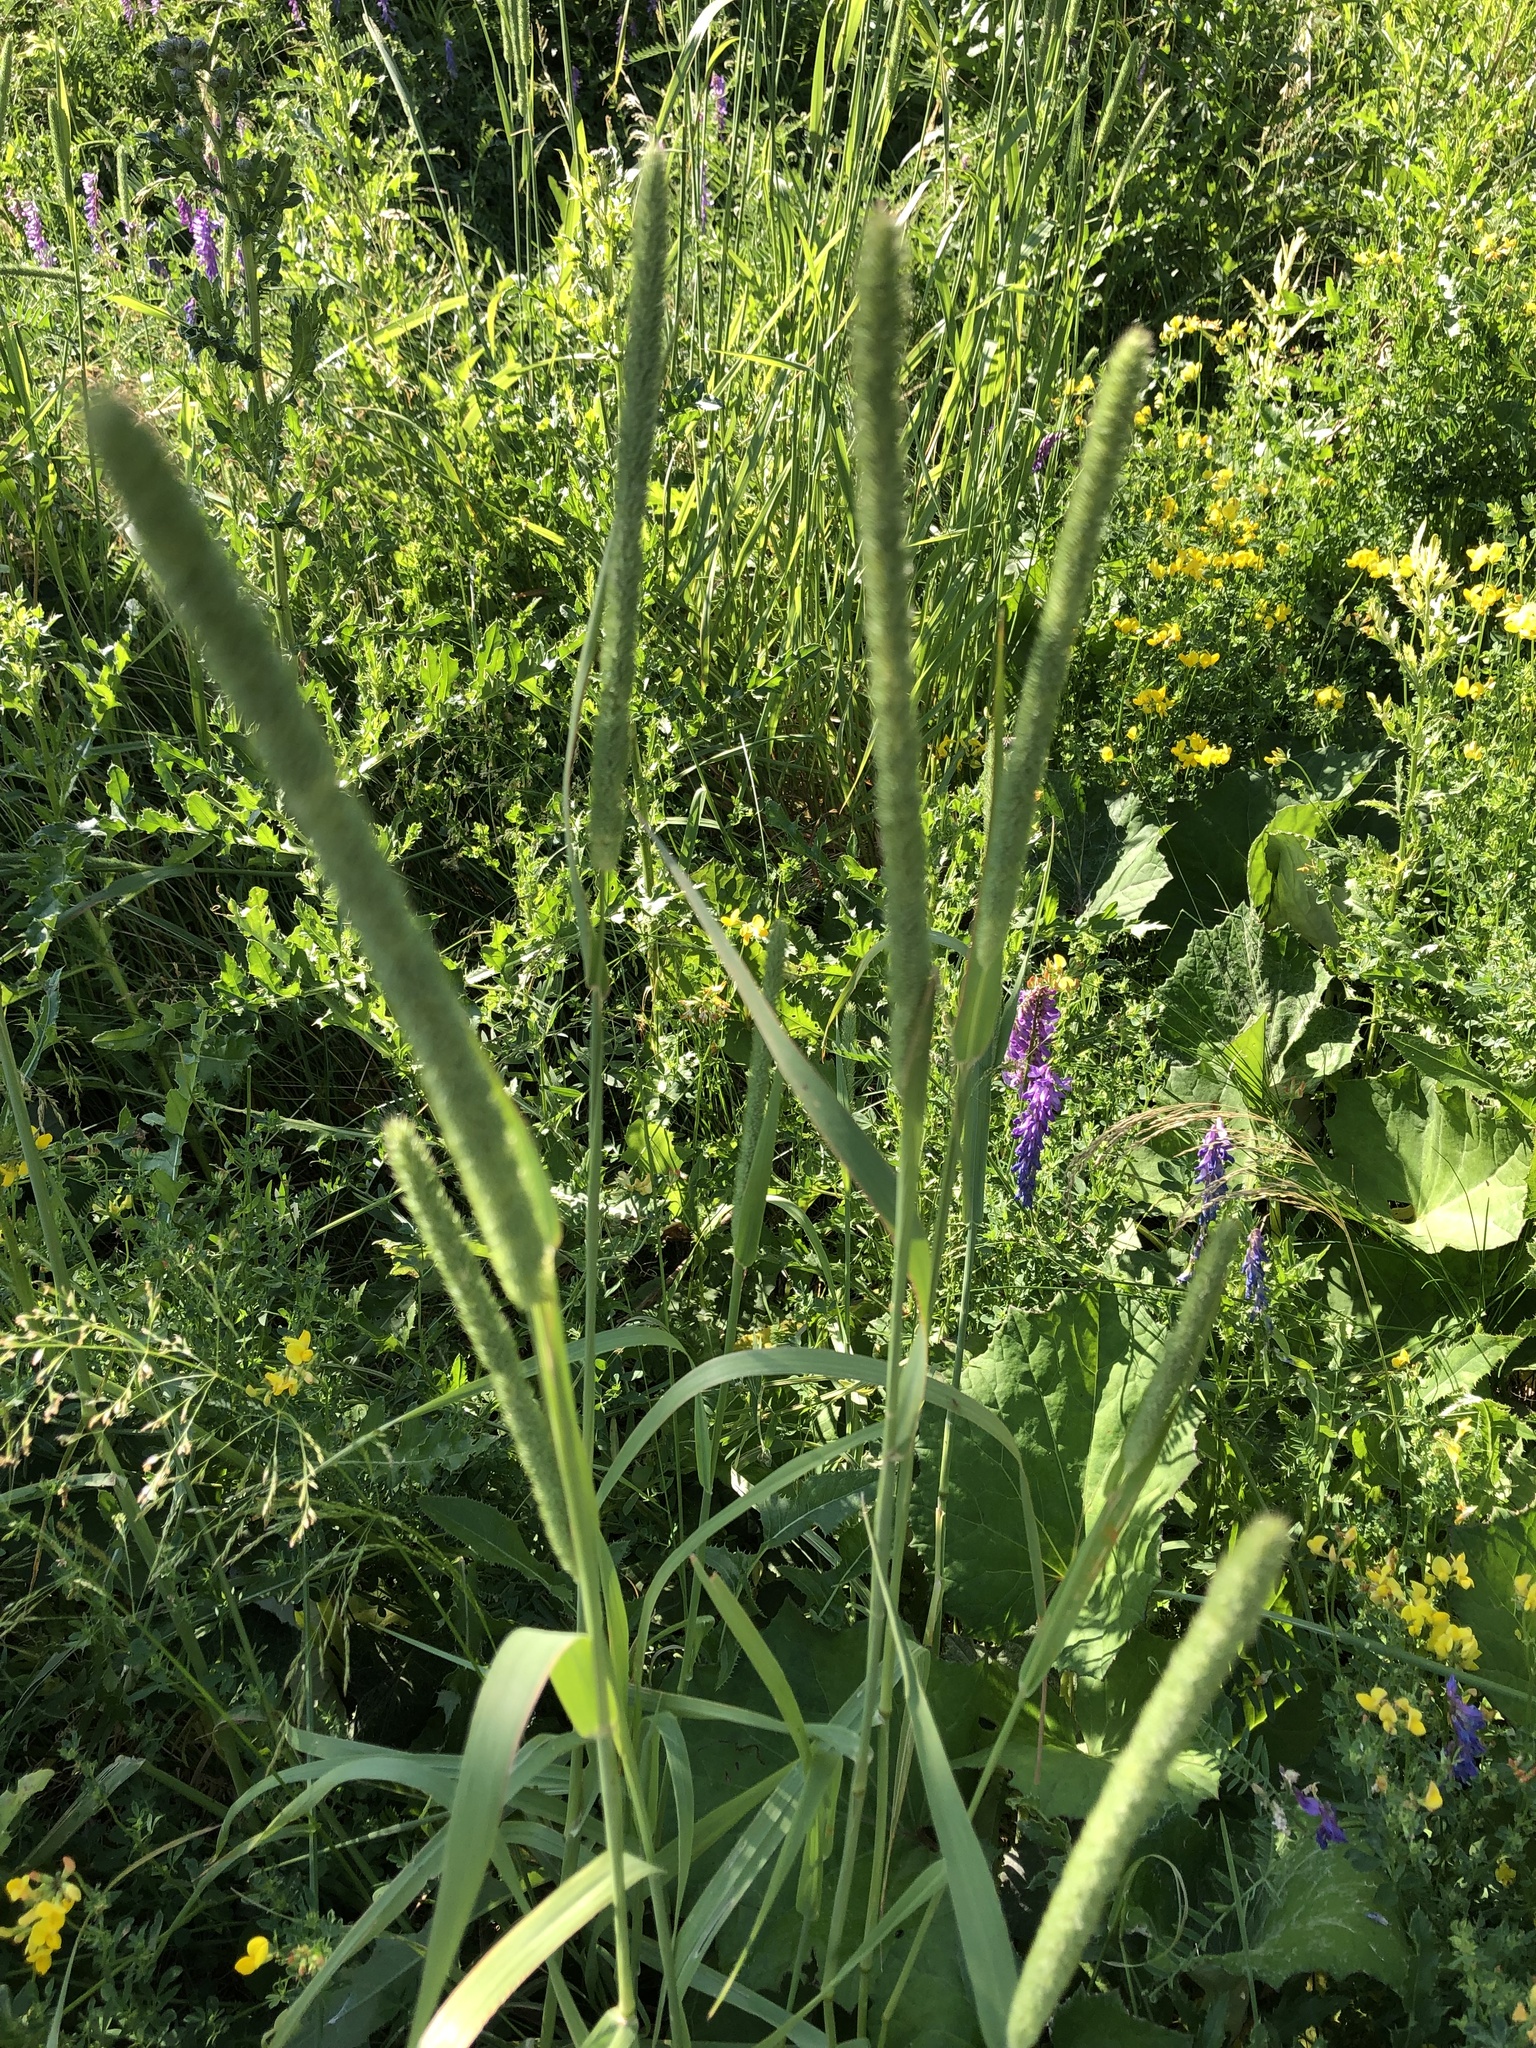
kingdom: Plantae
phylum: Tracheophyta
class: Liliopsida
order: Poales
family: Poaceae
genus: Phleum
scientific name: Phleum pratense
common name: Timothy grass
